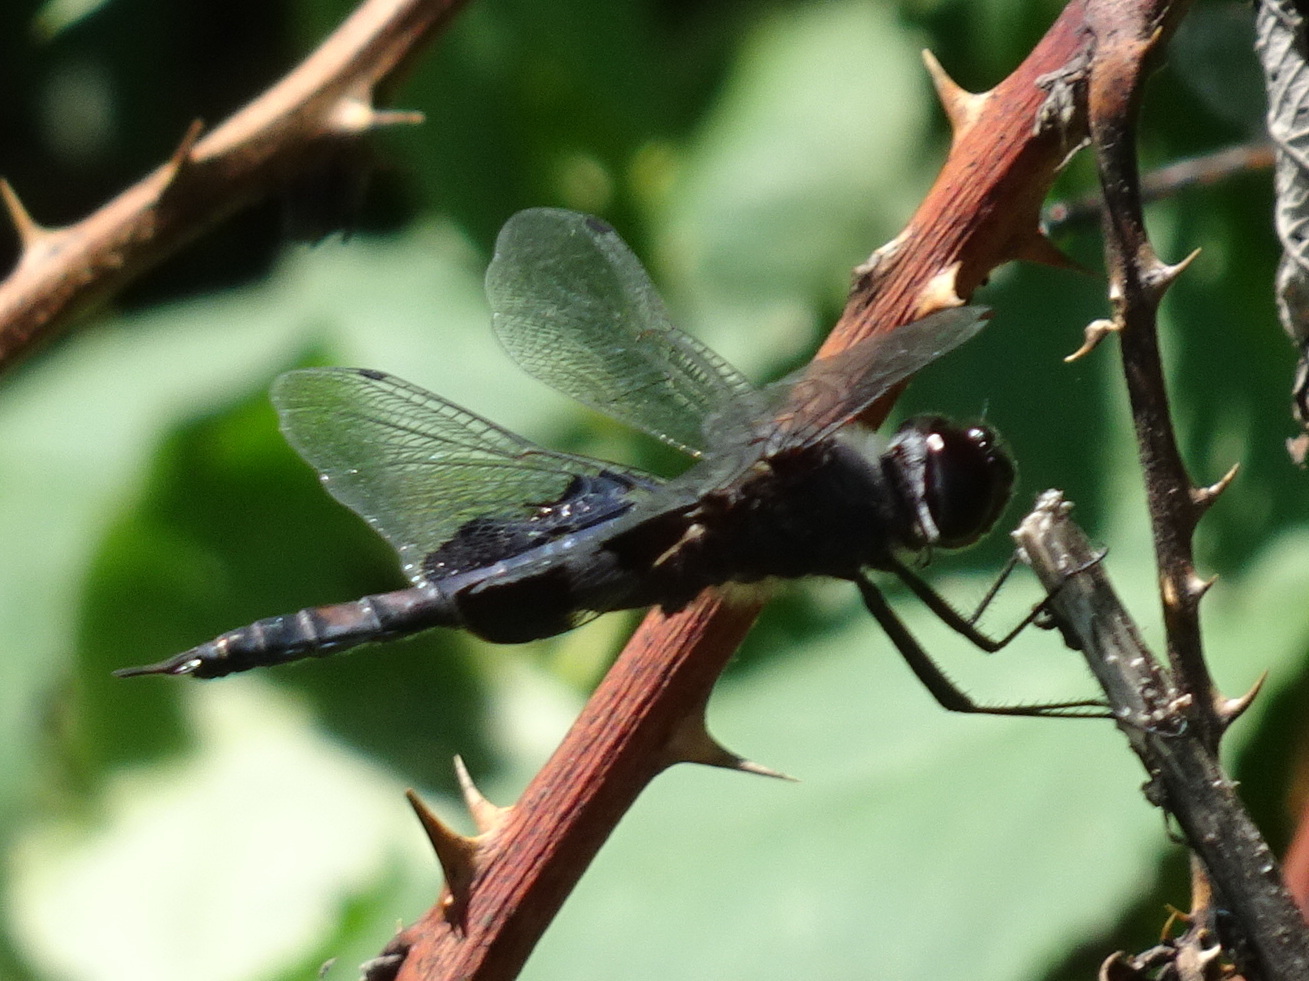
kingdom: Animalia
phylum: Arthropoda
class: Insecta
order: Odonata
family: Libellulidae
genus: Tramea
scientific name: Tramea lacerata
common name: Black saddlebags
